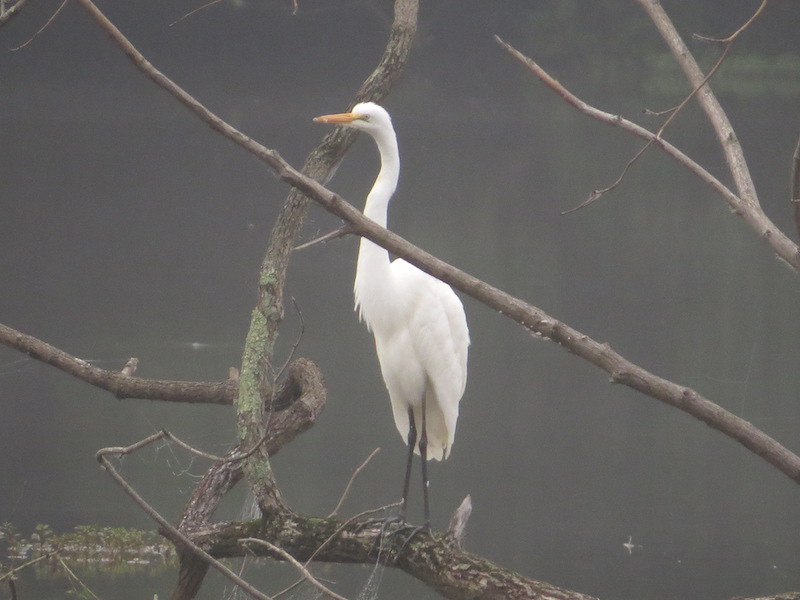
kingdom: Animalia
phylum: Chordata
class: Aves
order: Pelecaniformes
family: Ardeidae
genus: Ardea
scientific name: Ardea alba
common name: Great egret
